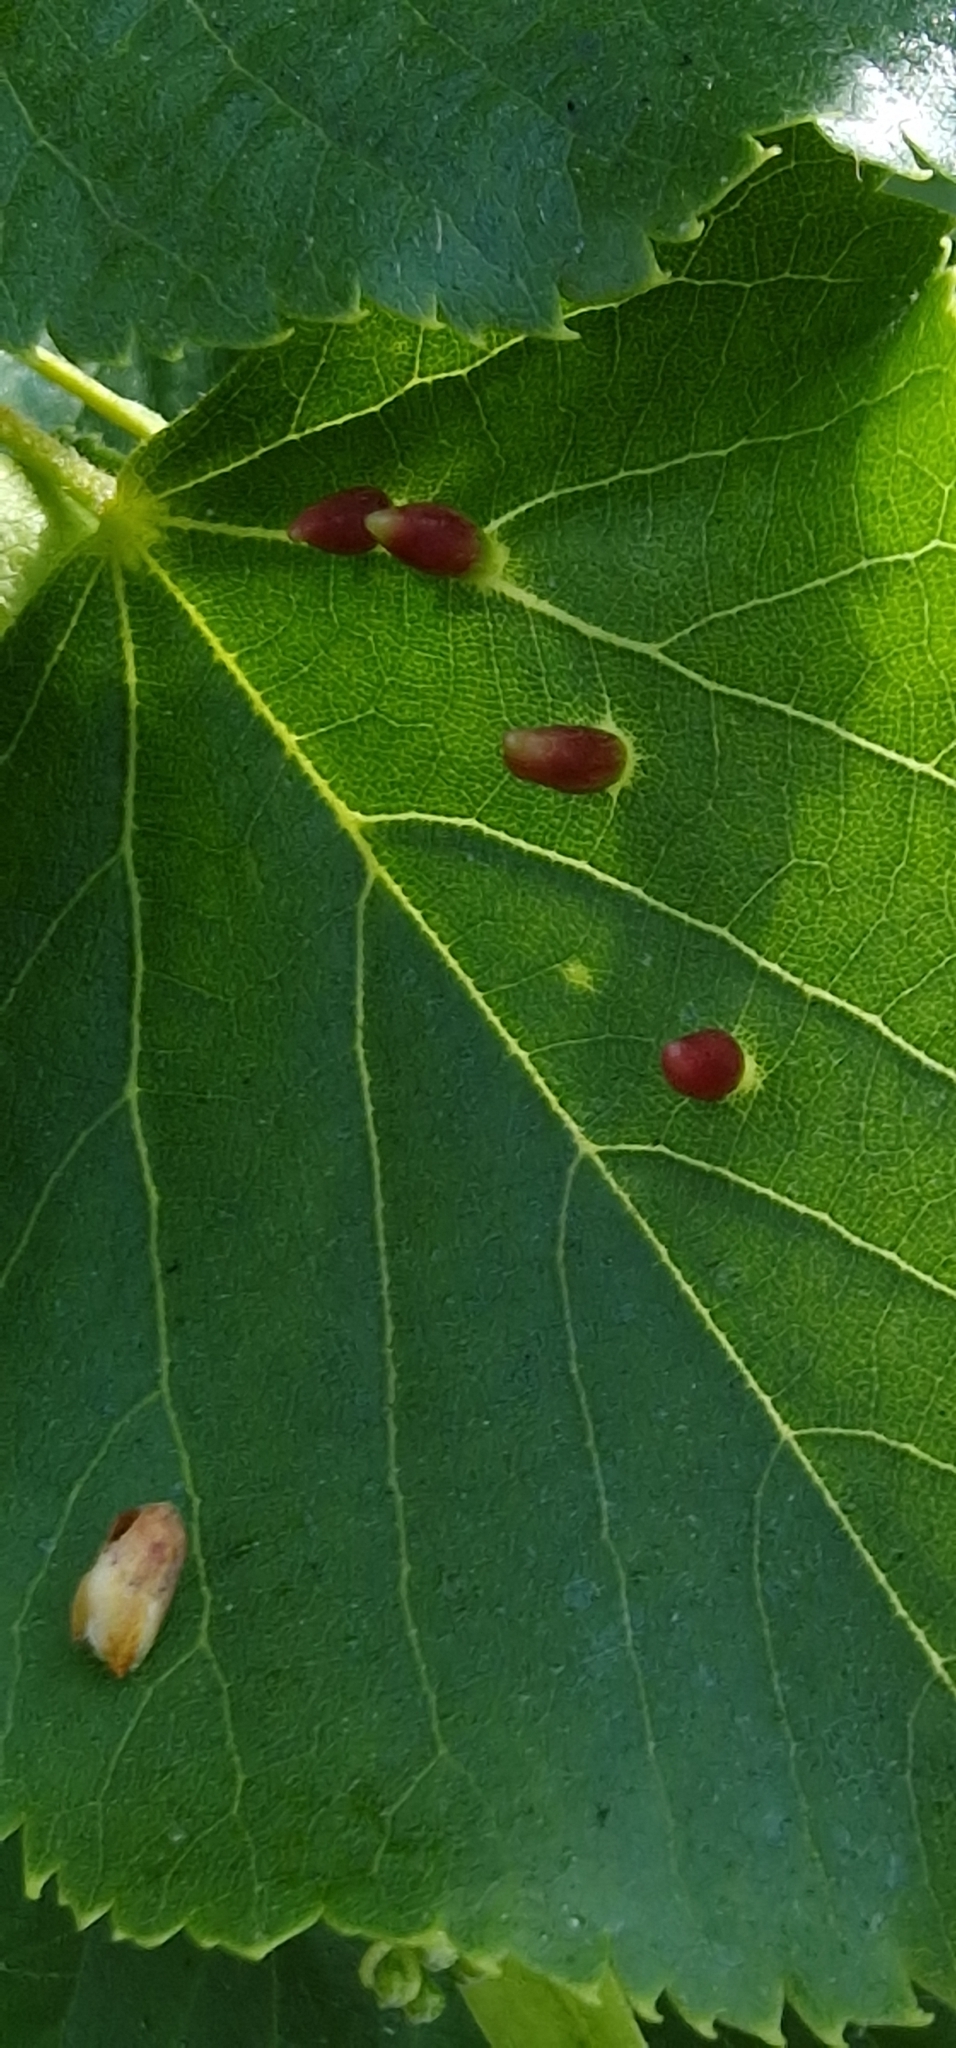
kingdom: Animalia
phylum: Arthropoda
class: Arachnida
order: Trombidiformes
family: Eriophyidae
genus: Eriophyes
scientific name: Eriophyes tiliae
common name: Red nail gall mite
